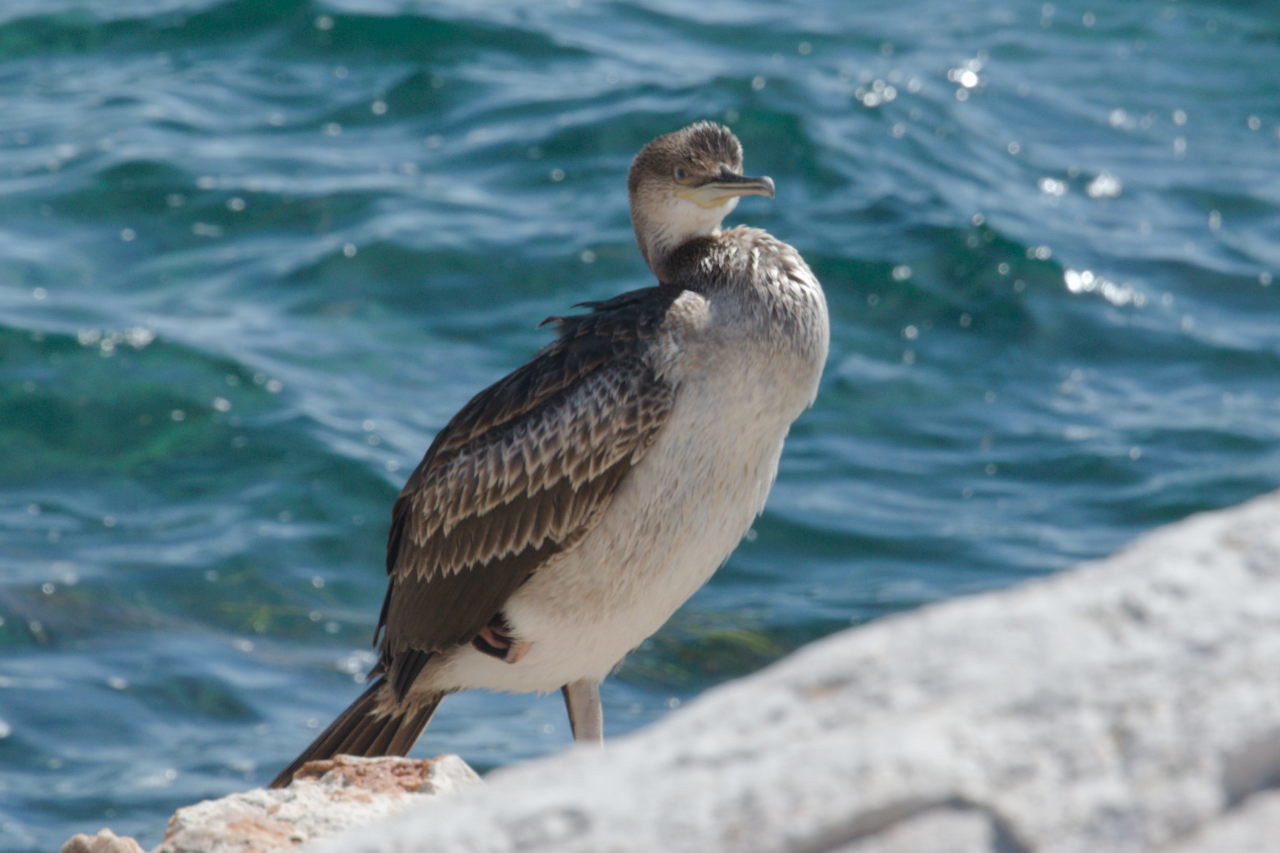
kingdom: Animalia
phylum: Chordata
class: Aves
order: Suliformes
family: Phalacrocoracidae
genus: Phalacrocorax
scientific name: Phalacrocorax aristotelis
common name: European shag
